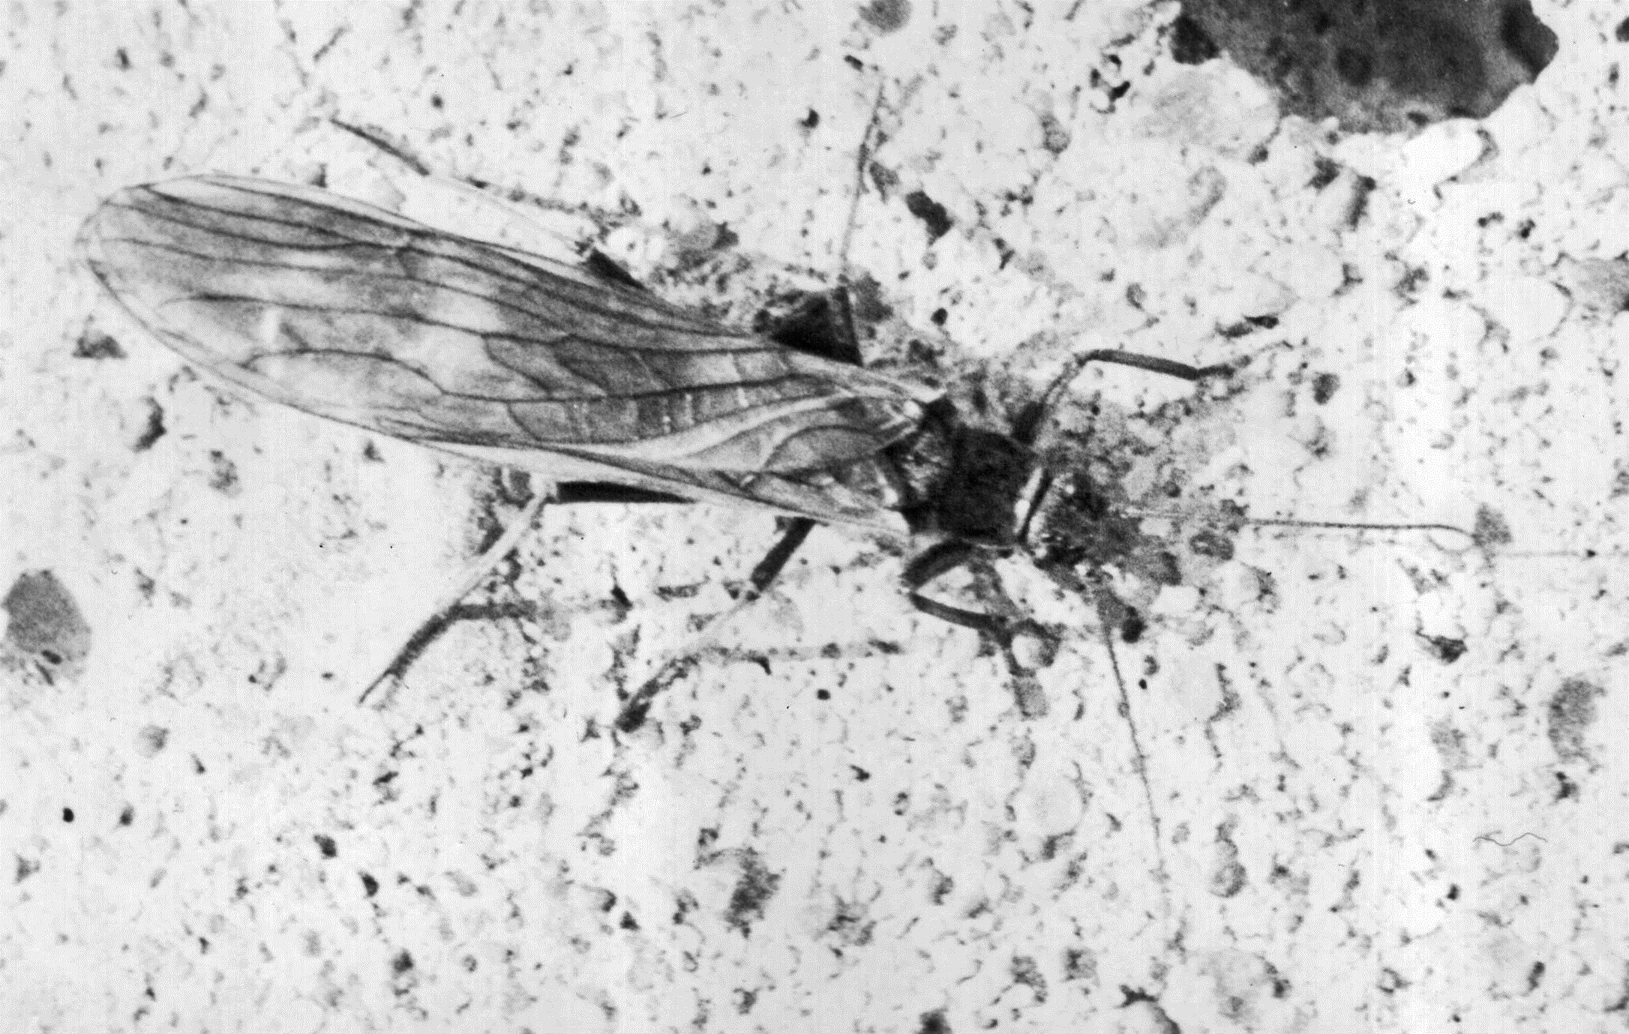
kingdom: Animalia
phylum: Arthropoda
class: Insecta
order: Plecoptera
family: Taeniopterygidae
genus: Taeniopteryx
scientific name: Taeniopteryx araneoides
